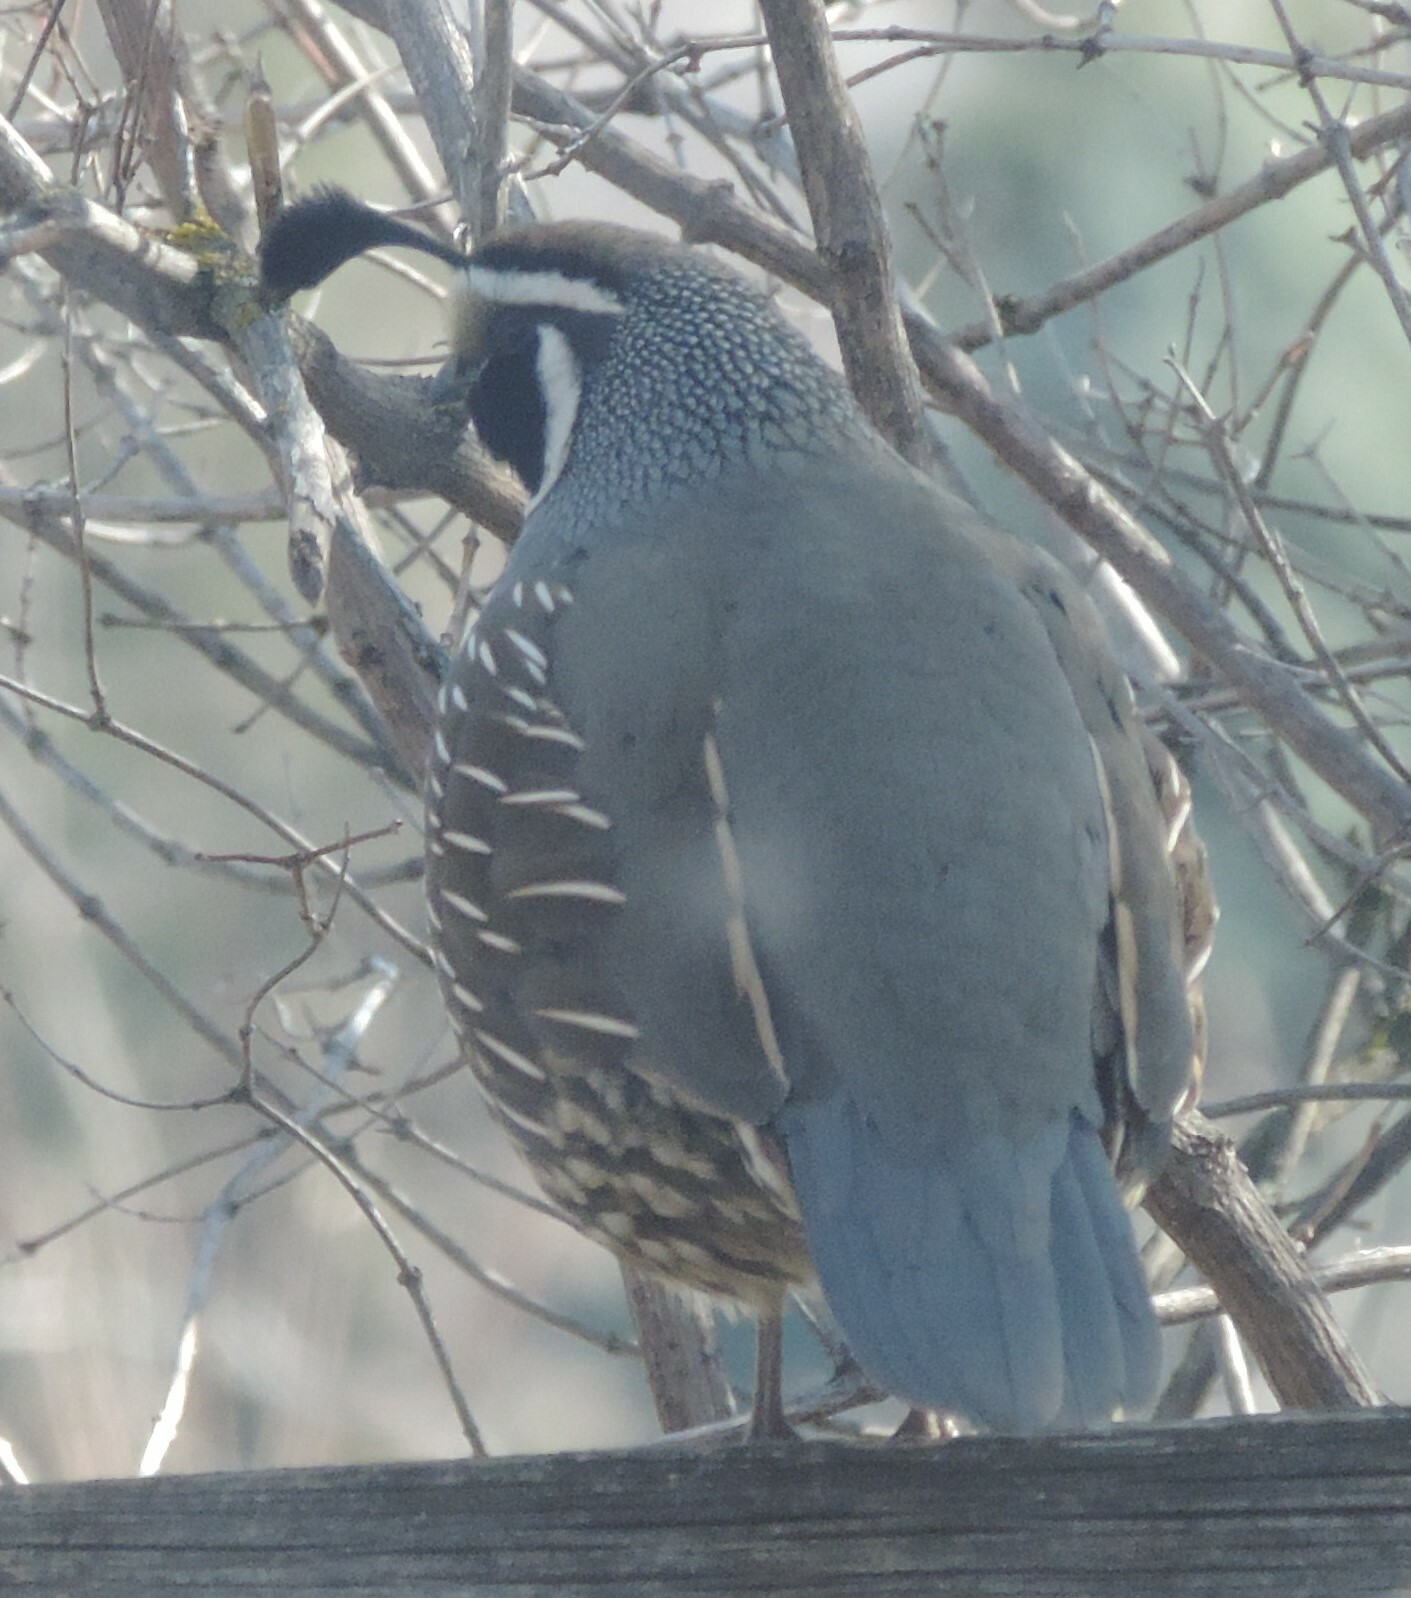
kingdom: Animalia
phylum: Chordata
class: Aves
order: Galliformes
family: Odontophoridae
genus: Callipepla
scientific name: Callipepla californica
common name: California quail
